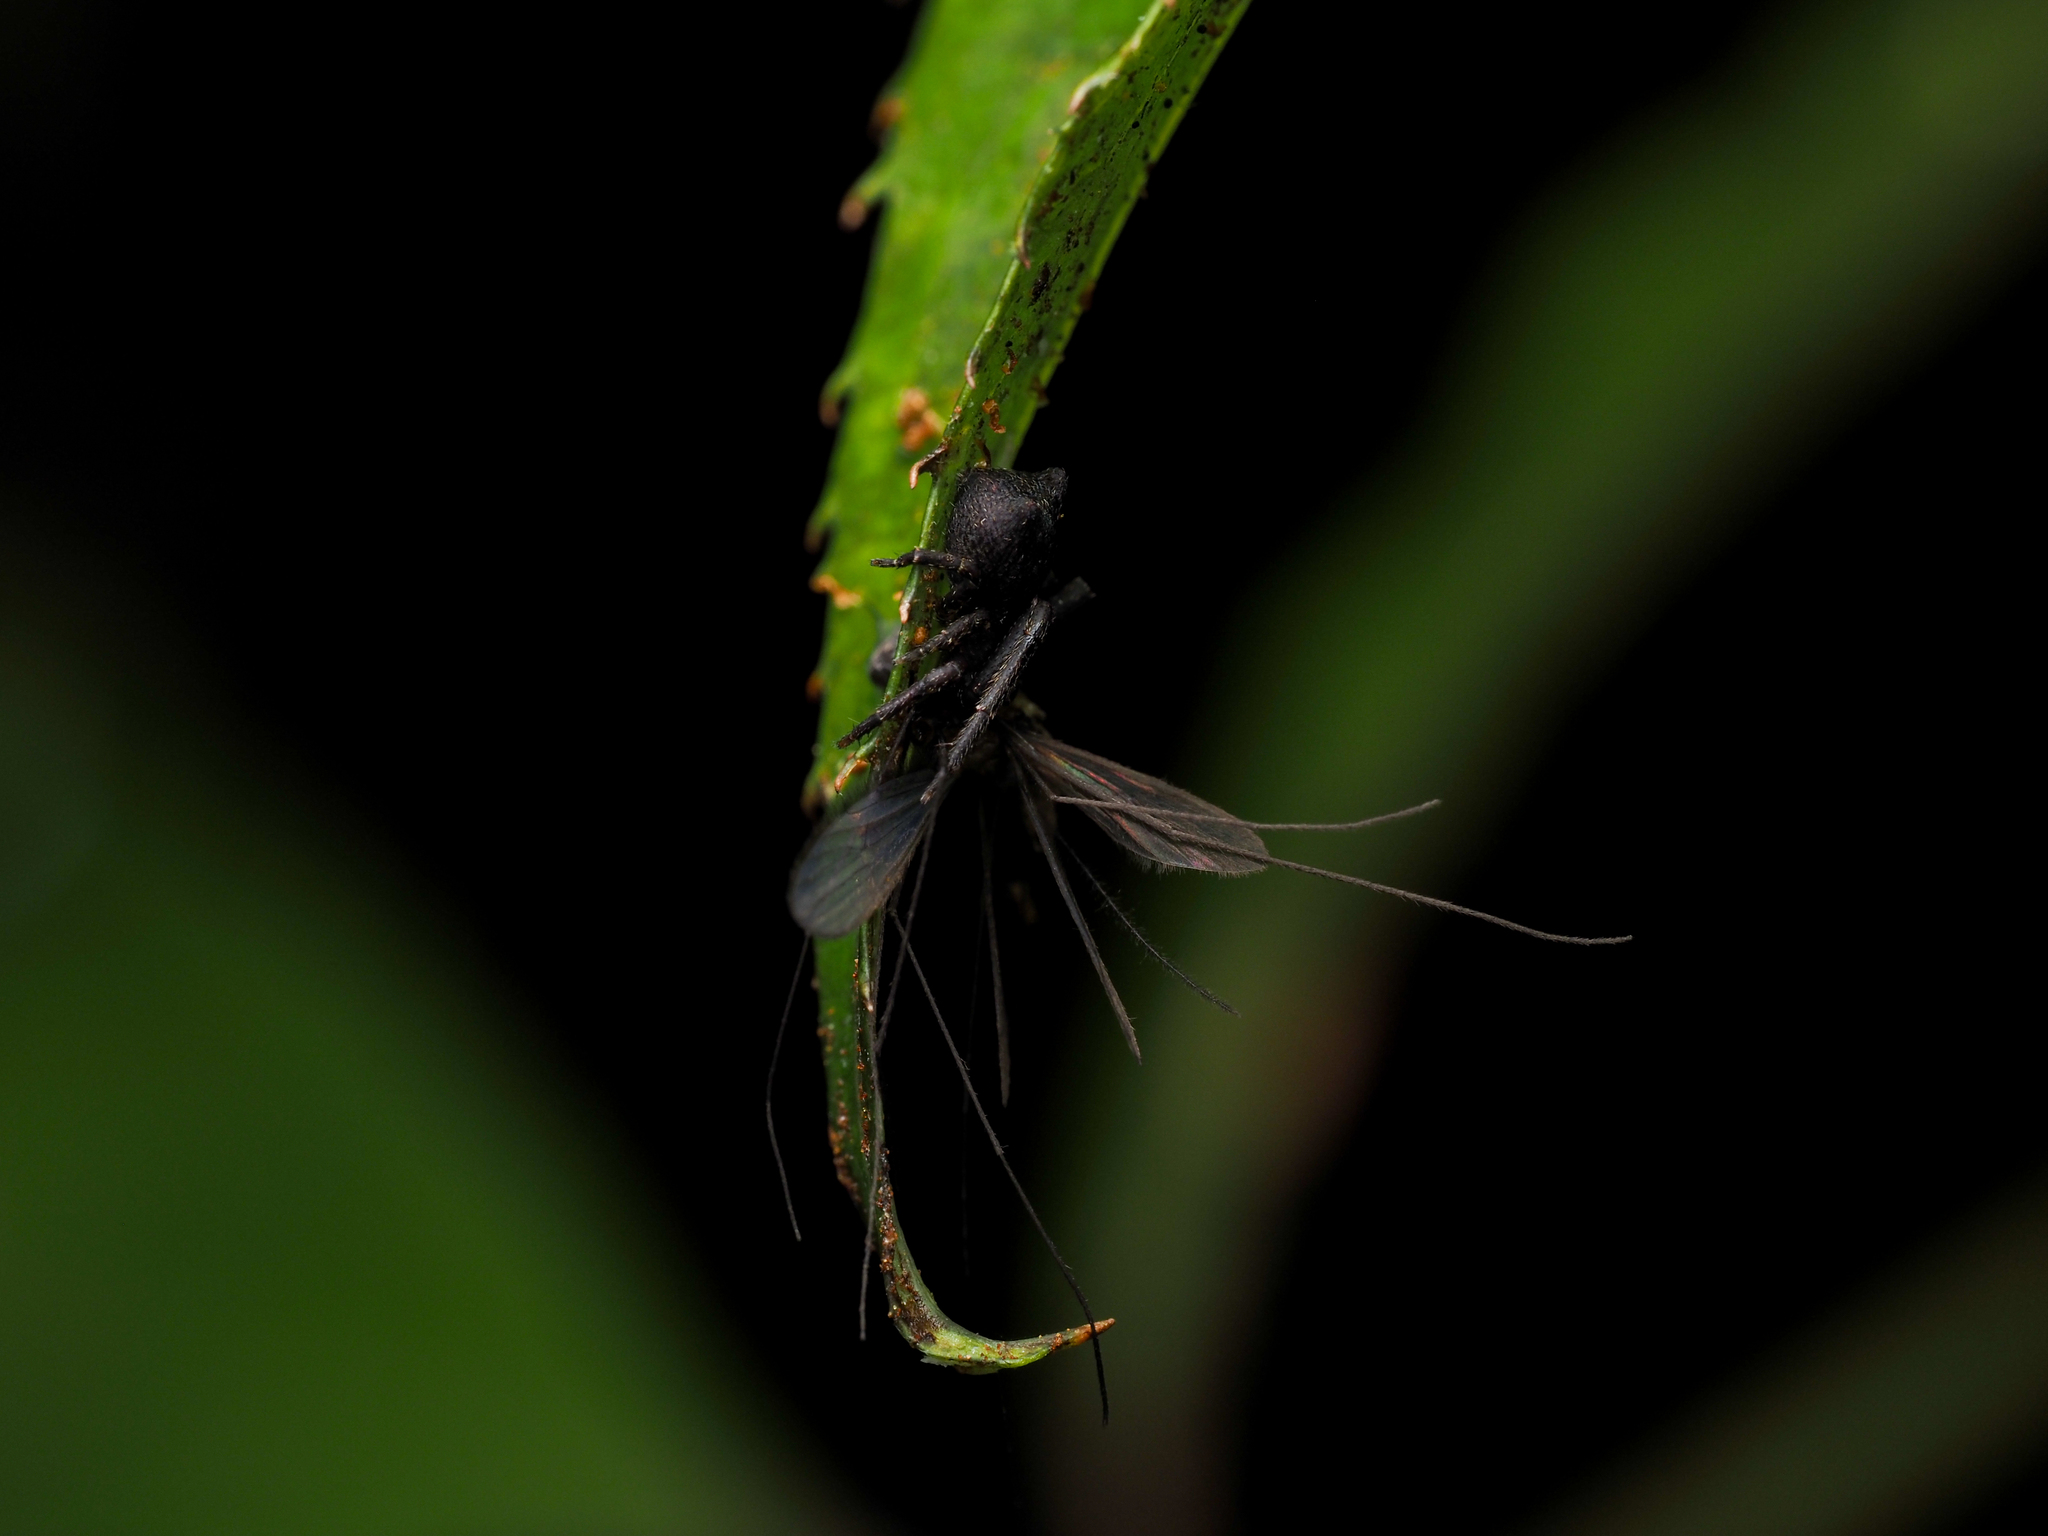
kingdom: Animalia
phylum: Arthropoda
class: Arachnida
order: Araneae
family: Thomisidae
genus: Sidymella
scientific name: Sidymella angularis
